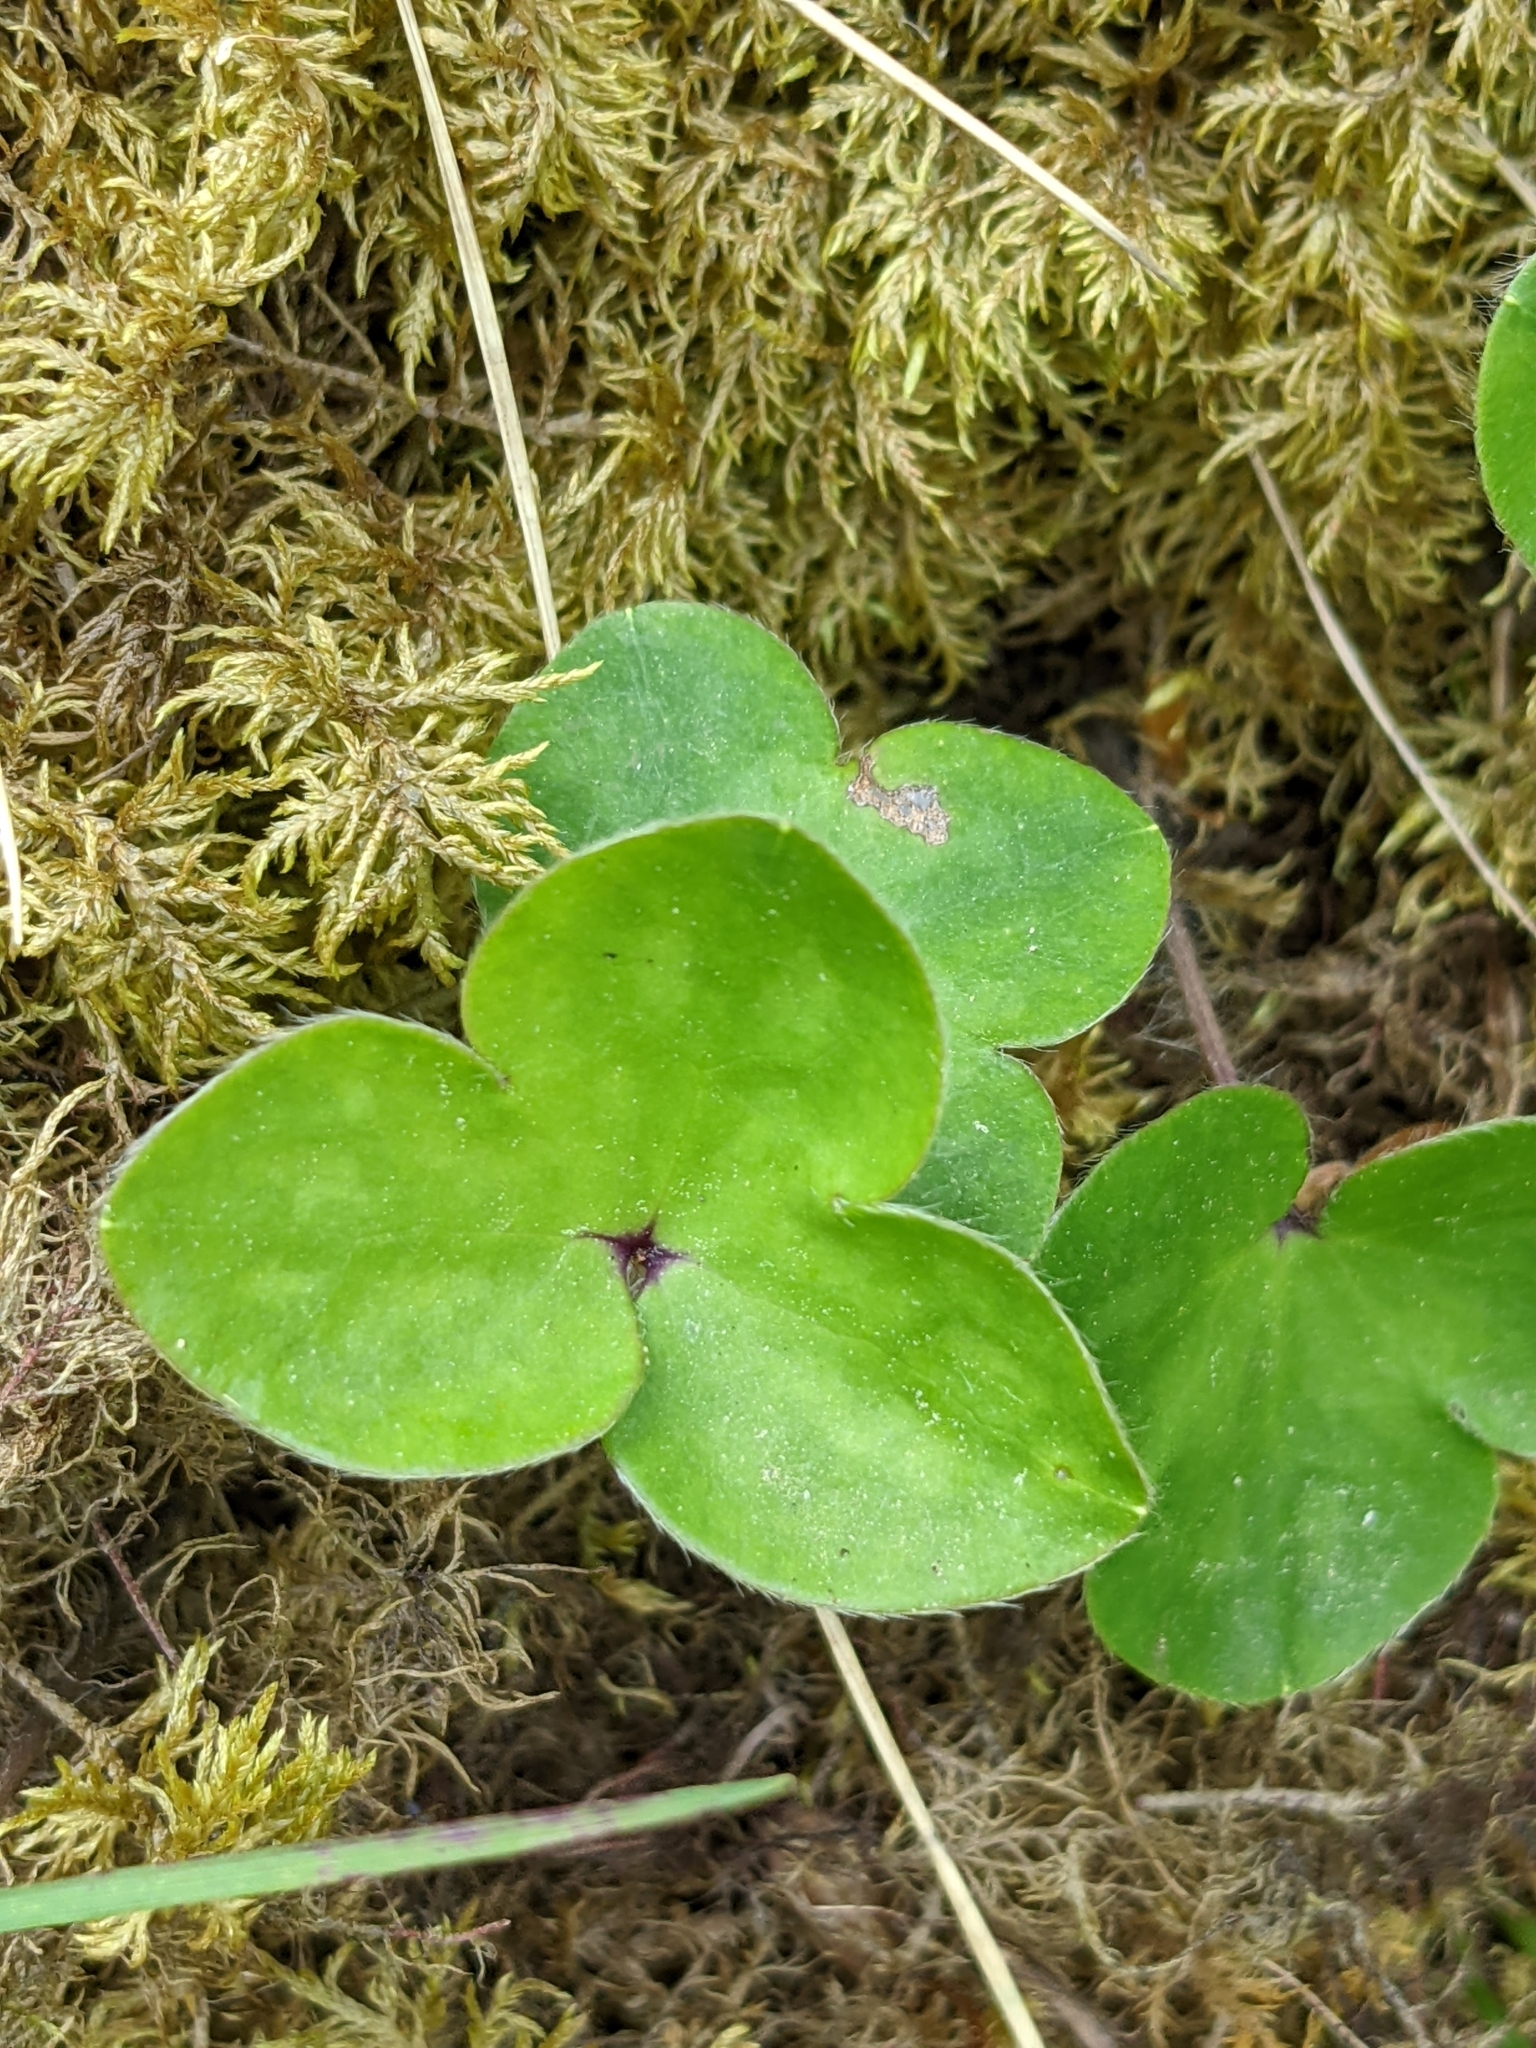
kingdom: Plantae
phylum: Tracheophyta
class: Magnoliopsida
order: Ranunculales
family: Ranunculaceae
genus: Hepatica
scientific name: Hepatica nobilis
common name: Liverleaf
